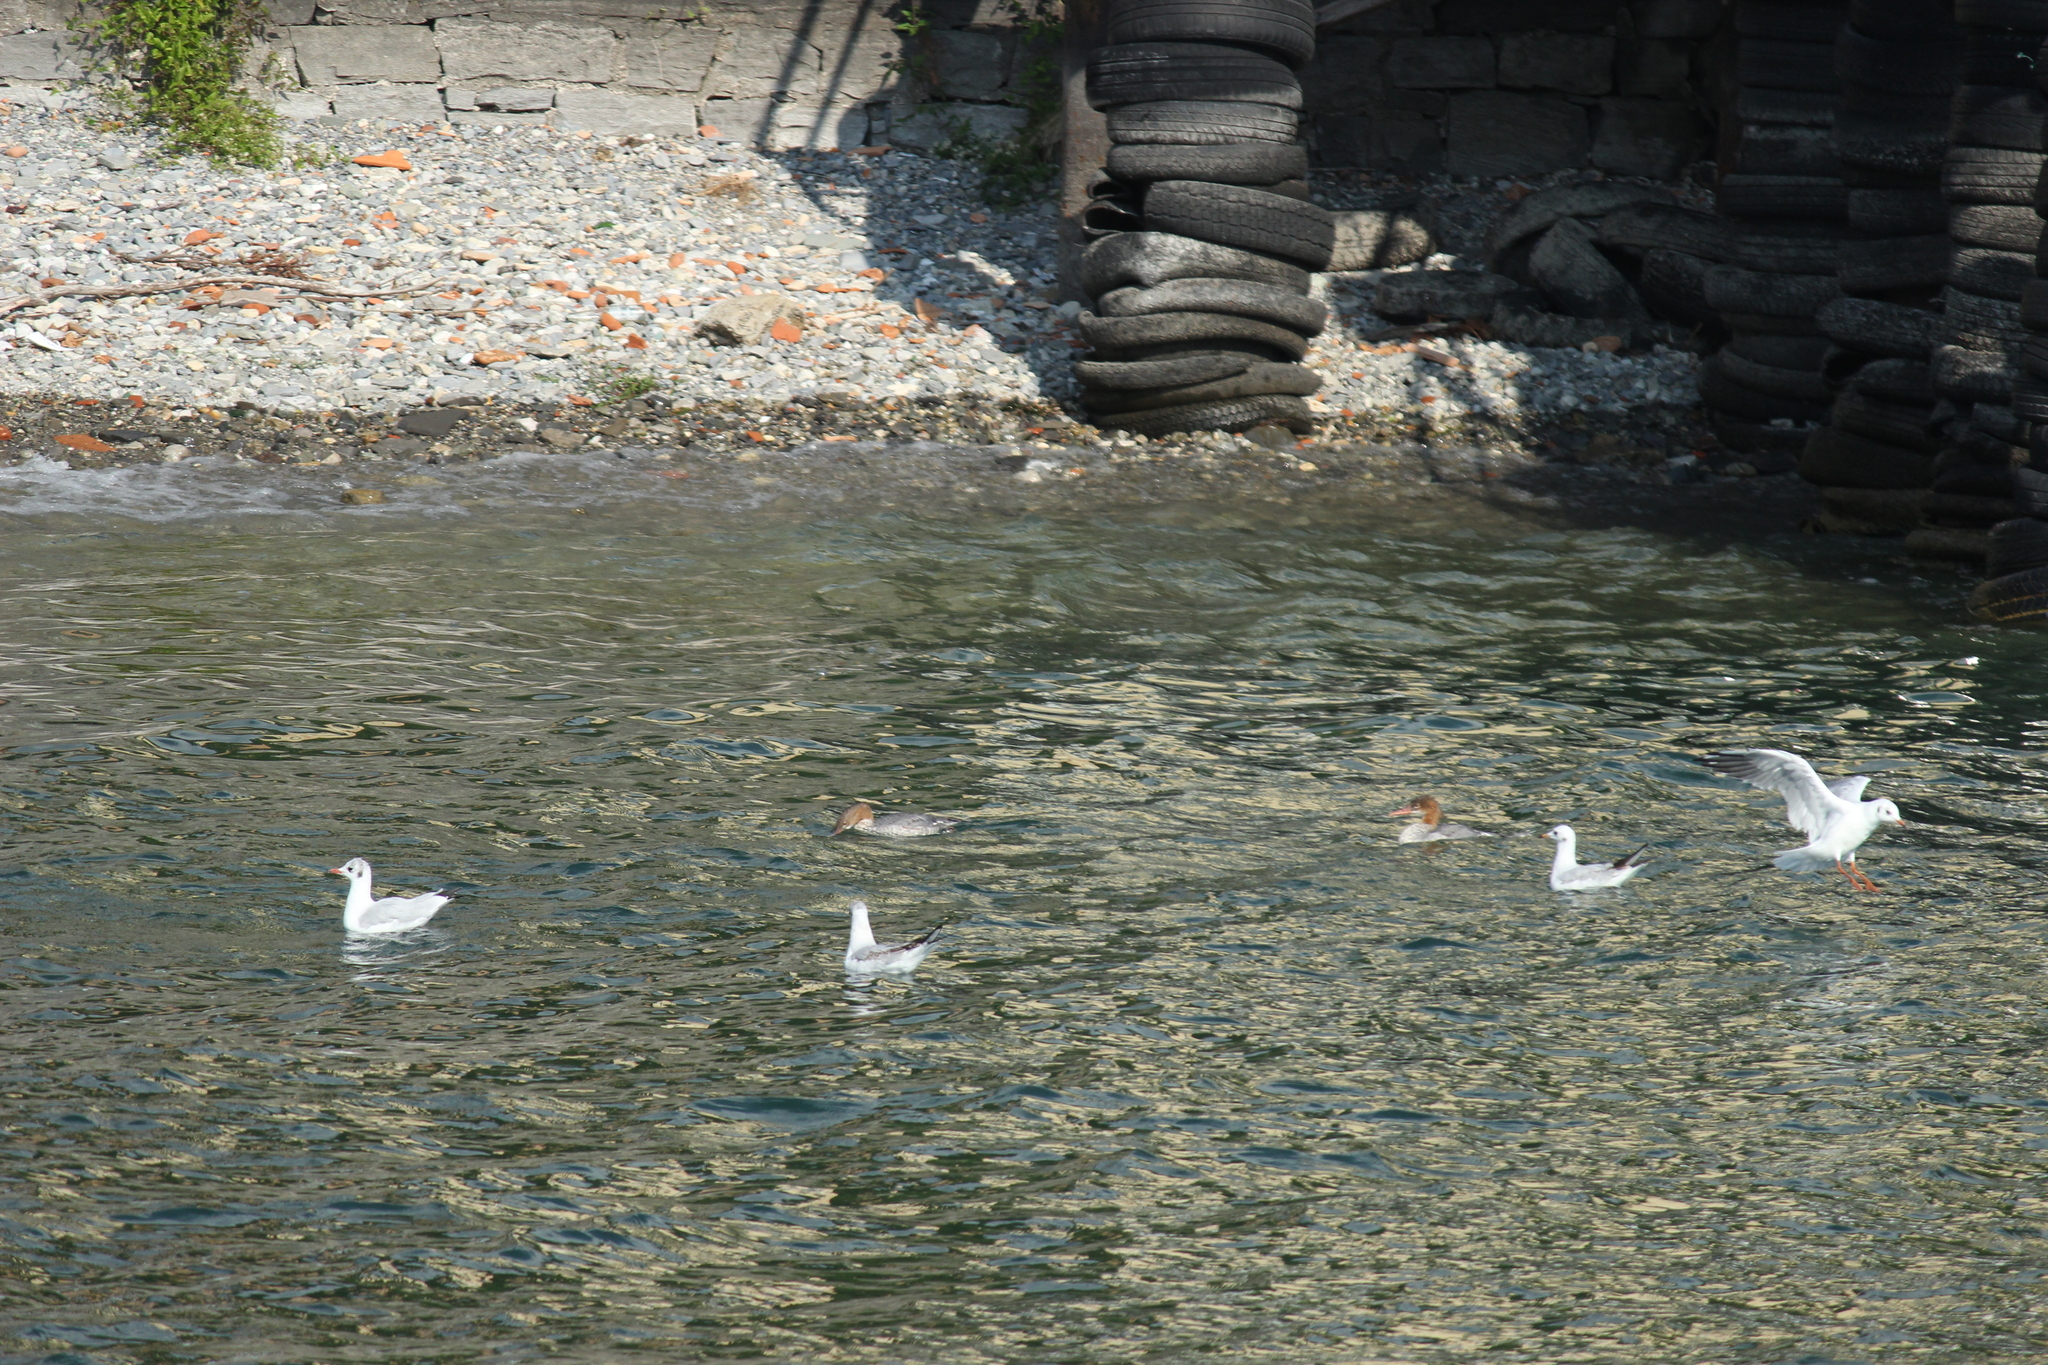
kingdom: Animalia
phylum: Chordata
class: Aves
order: Anseriformes
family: Anatidae
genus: Mergus
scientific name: Mergus merganser
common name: Common merganser
